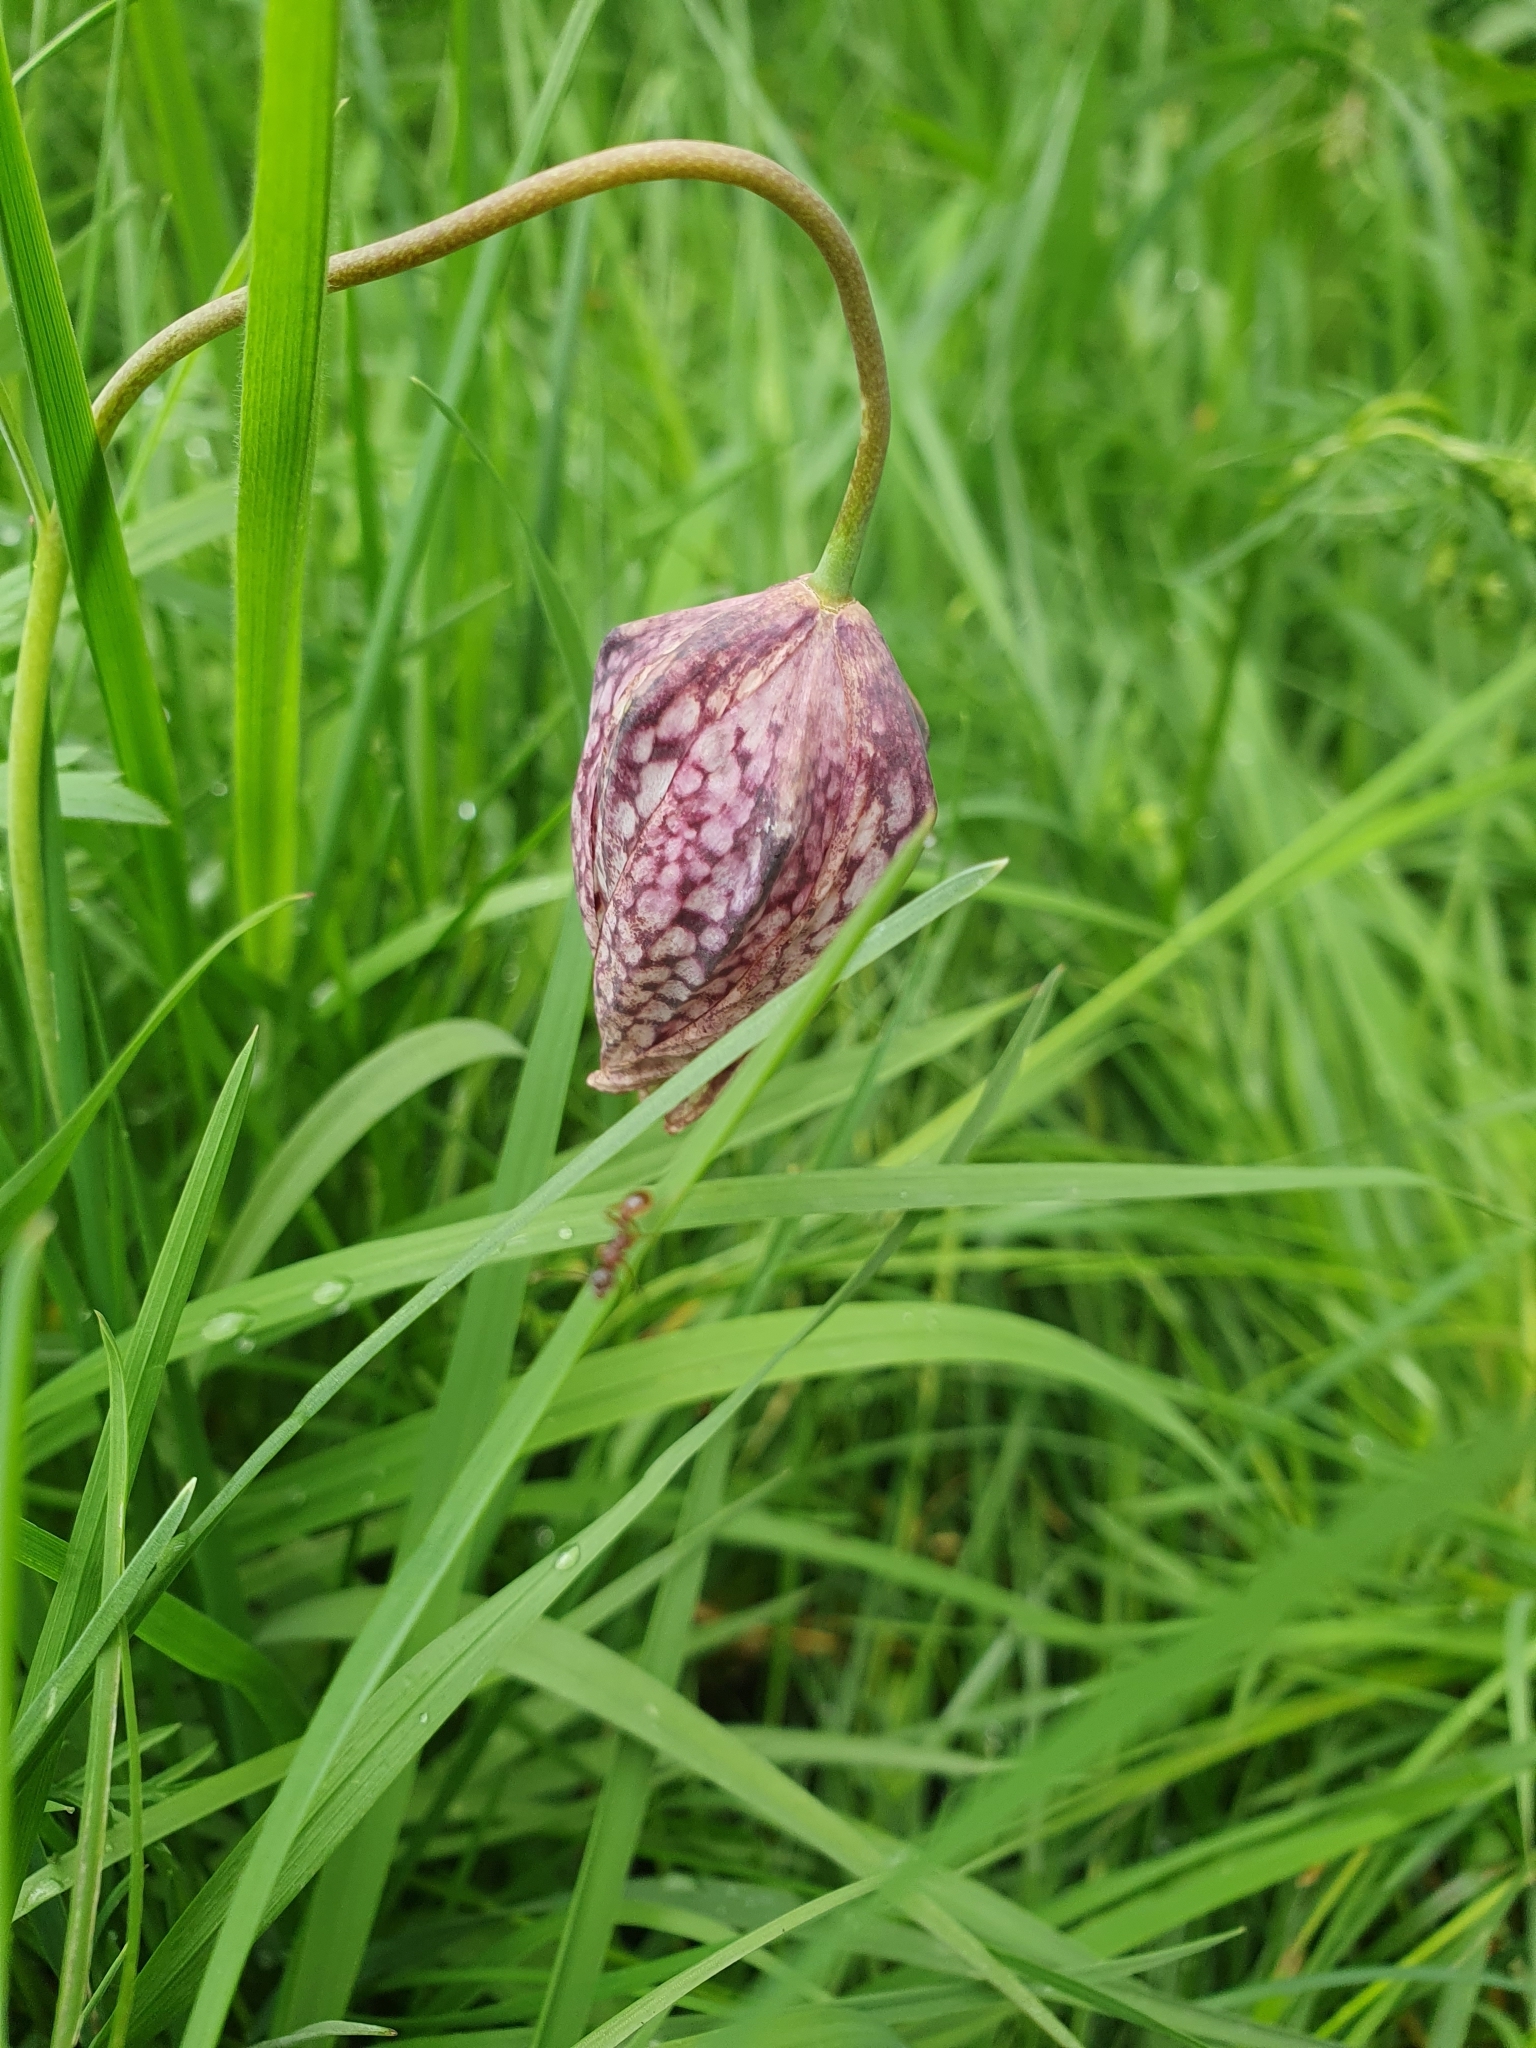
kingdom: Plantae
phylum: Tracheophyta
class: Liliopsida
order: Liliales
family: Liliaceae
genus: Fritillaria
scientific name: Fritillaria meleagris
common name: Fritillary
